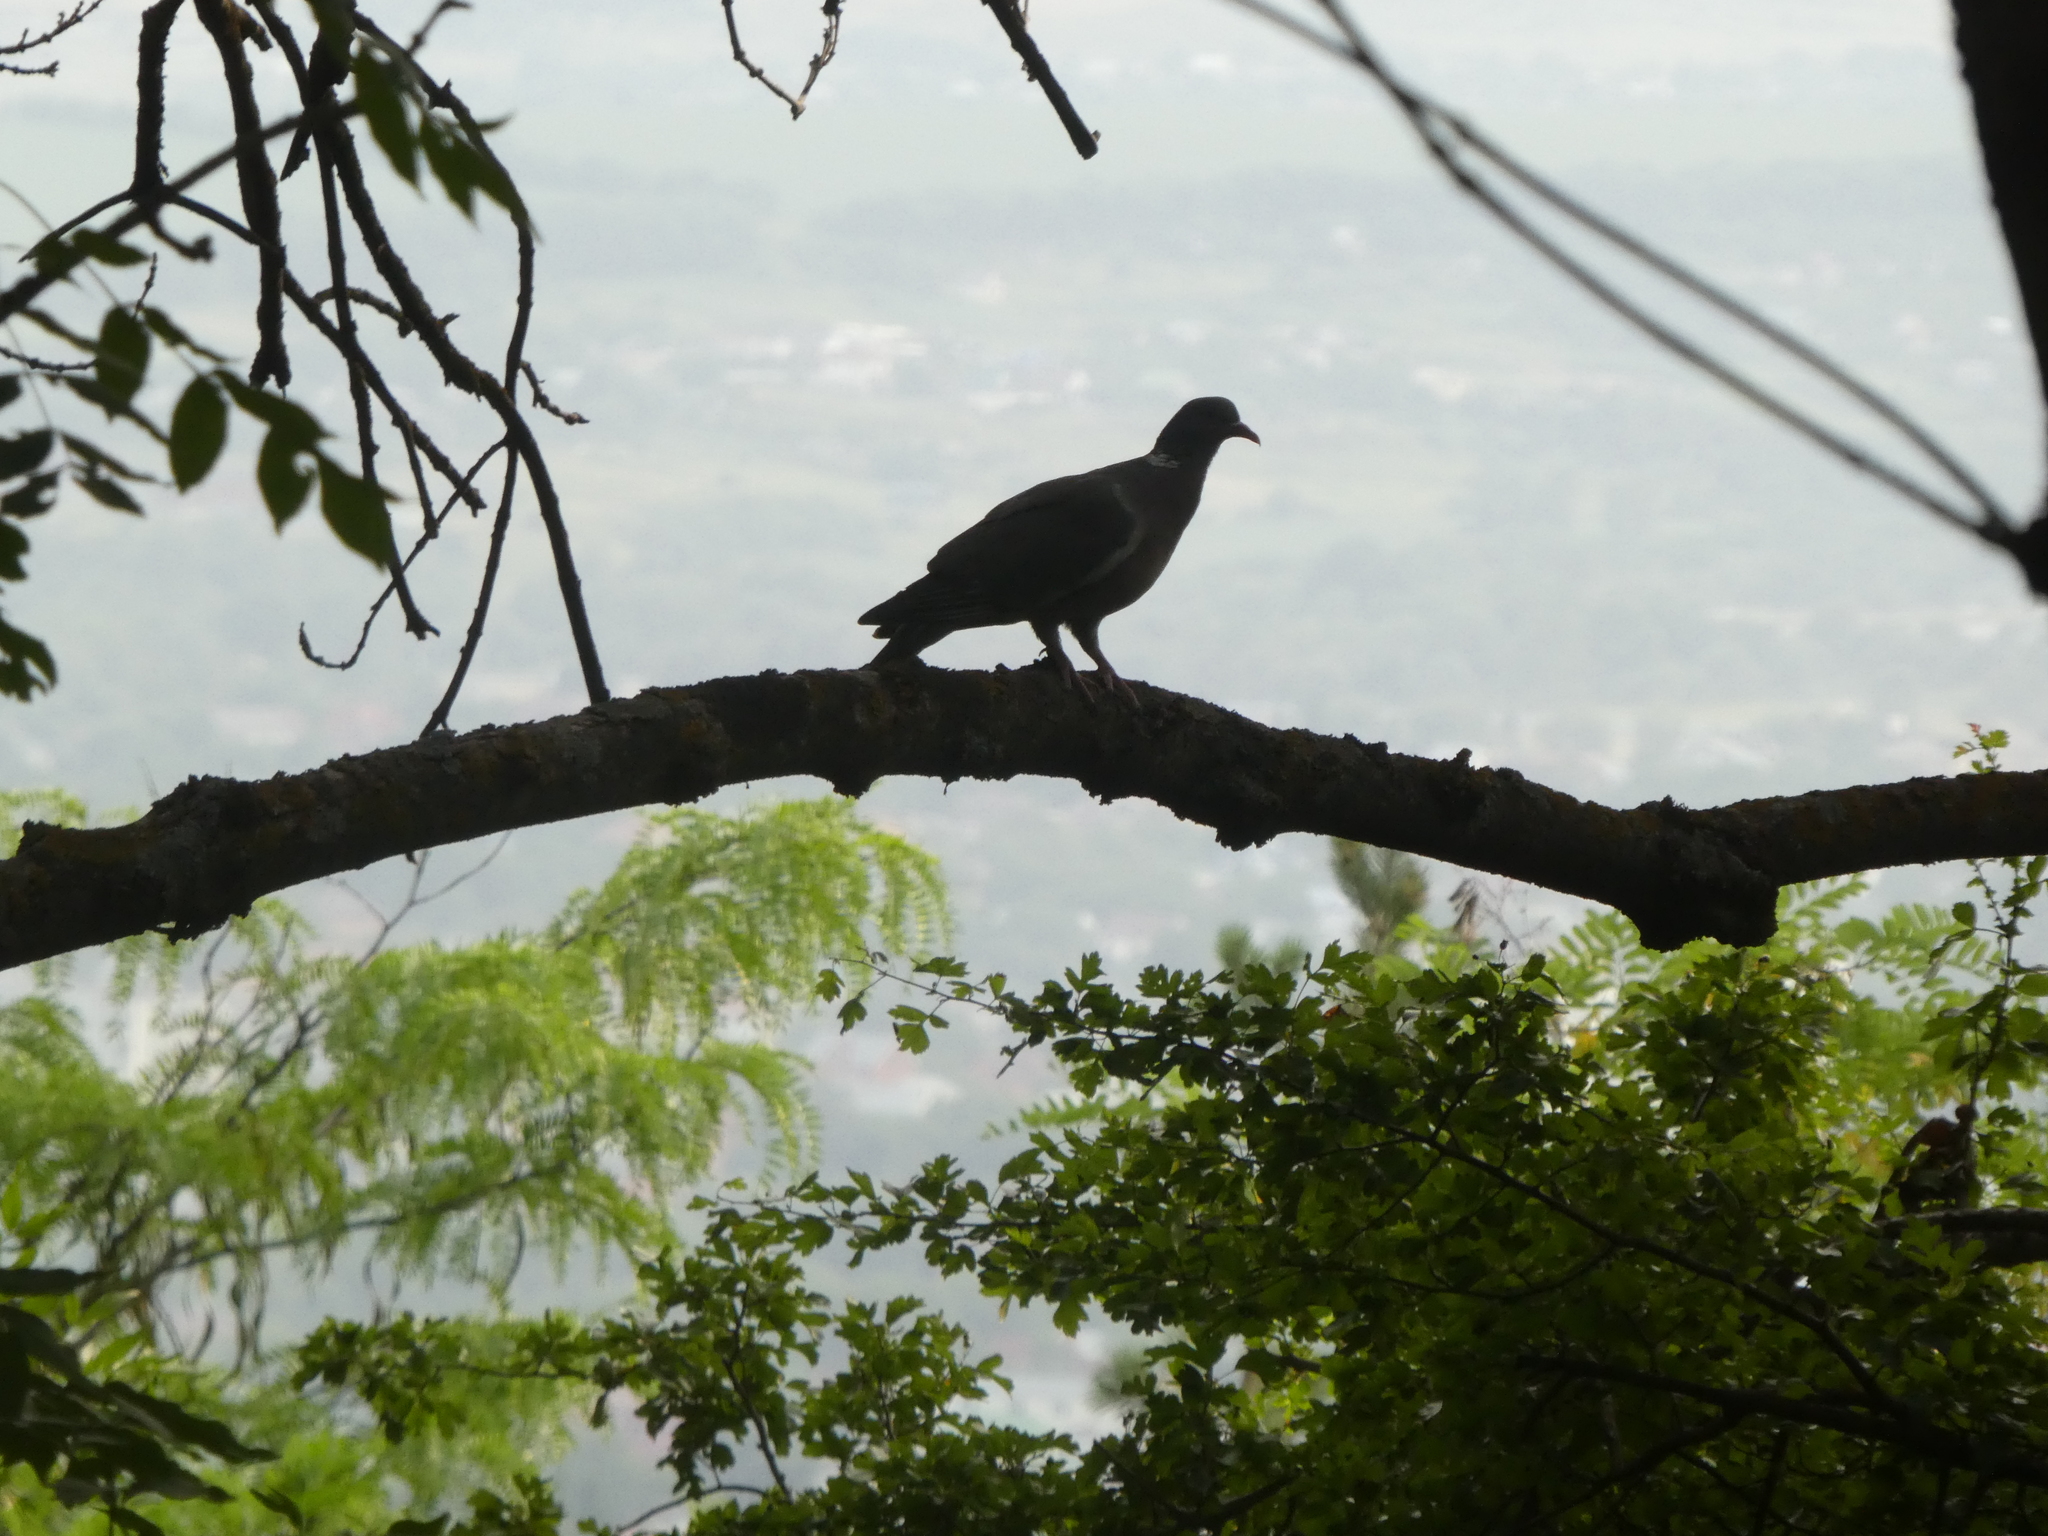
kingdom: Animalia
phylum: Chordata
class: Aves
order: Columbiformes
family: Columbidae
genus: Columba
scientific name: Columba palumbus
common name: Common wood pigeon
